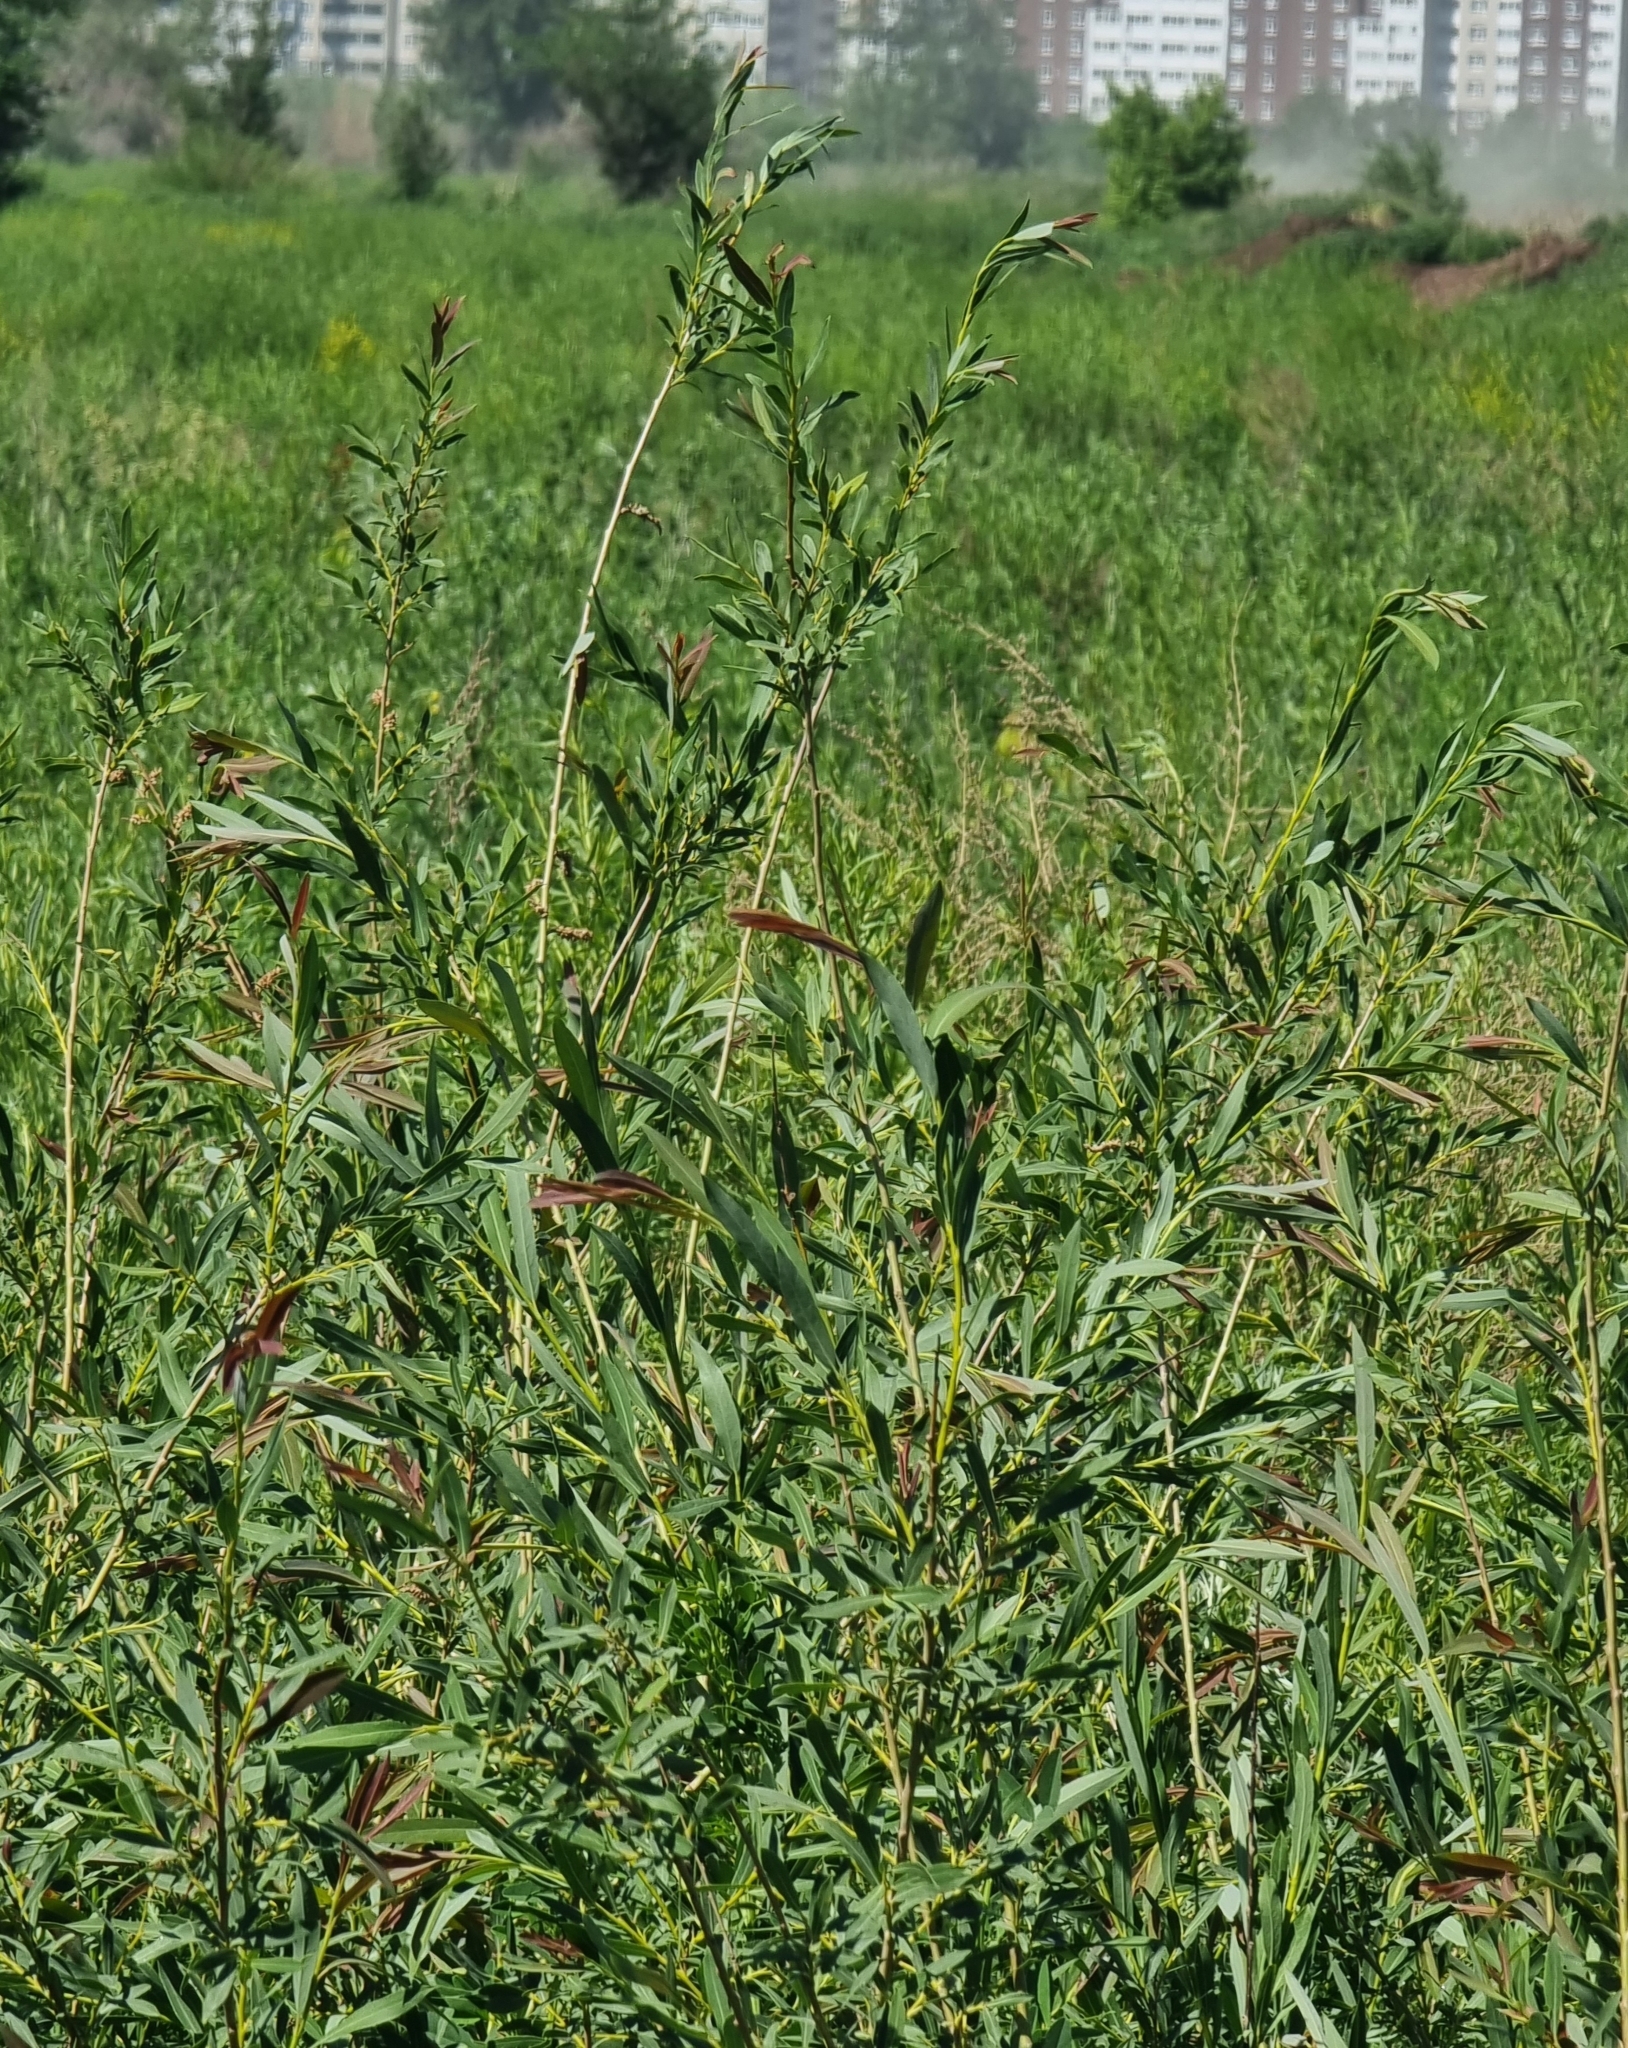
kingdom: Plantae
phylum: Tracheophyta
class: Magnoliopsida
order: Malpighiales
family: Salicaceae
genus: Salix
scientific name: Salix vinogradovii
